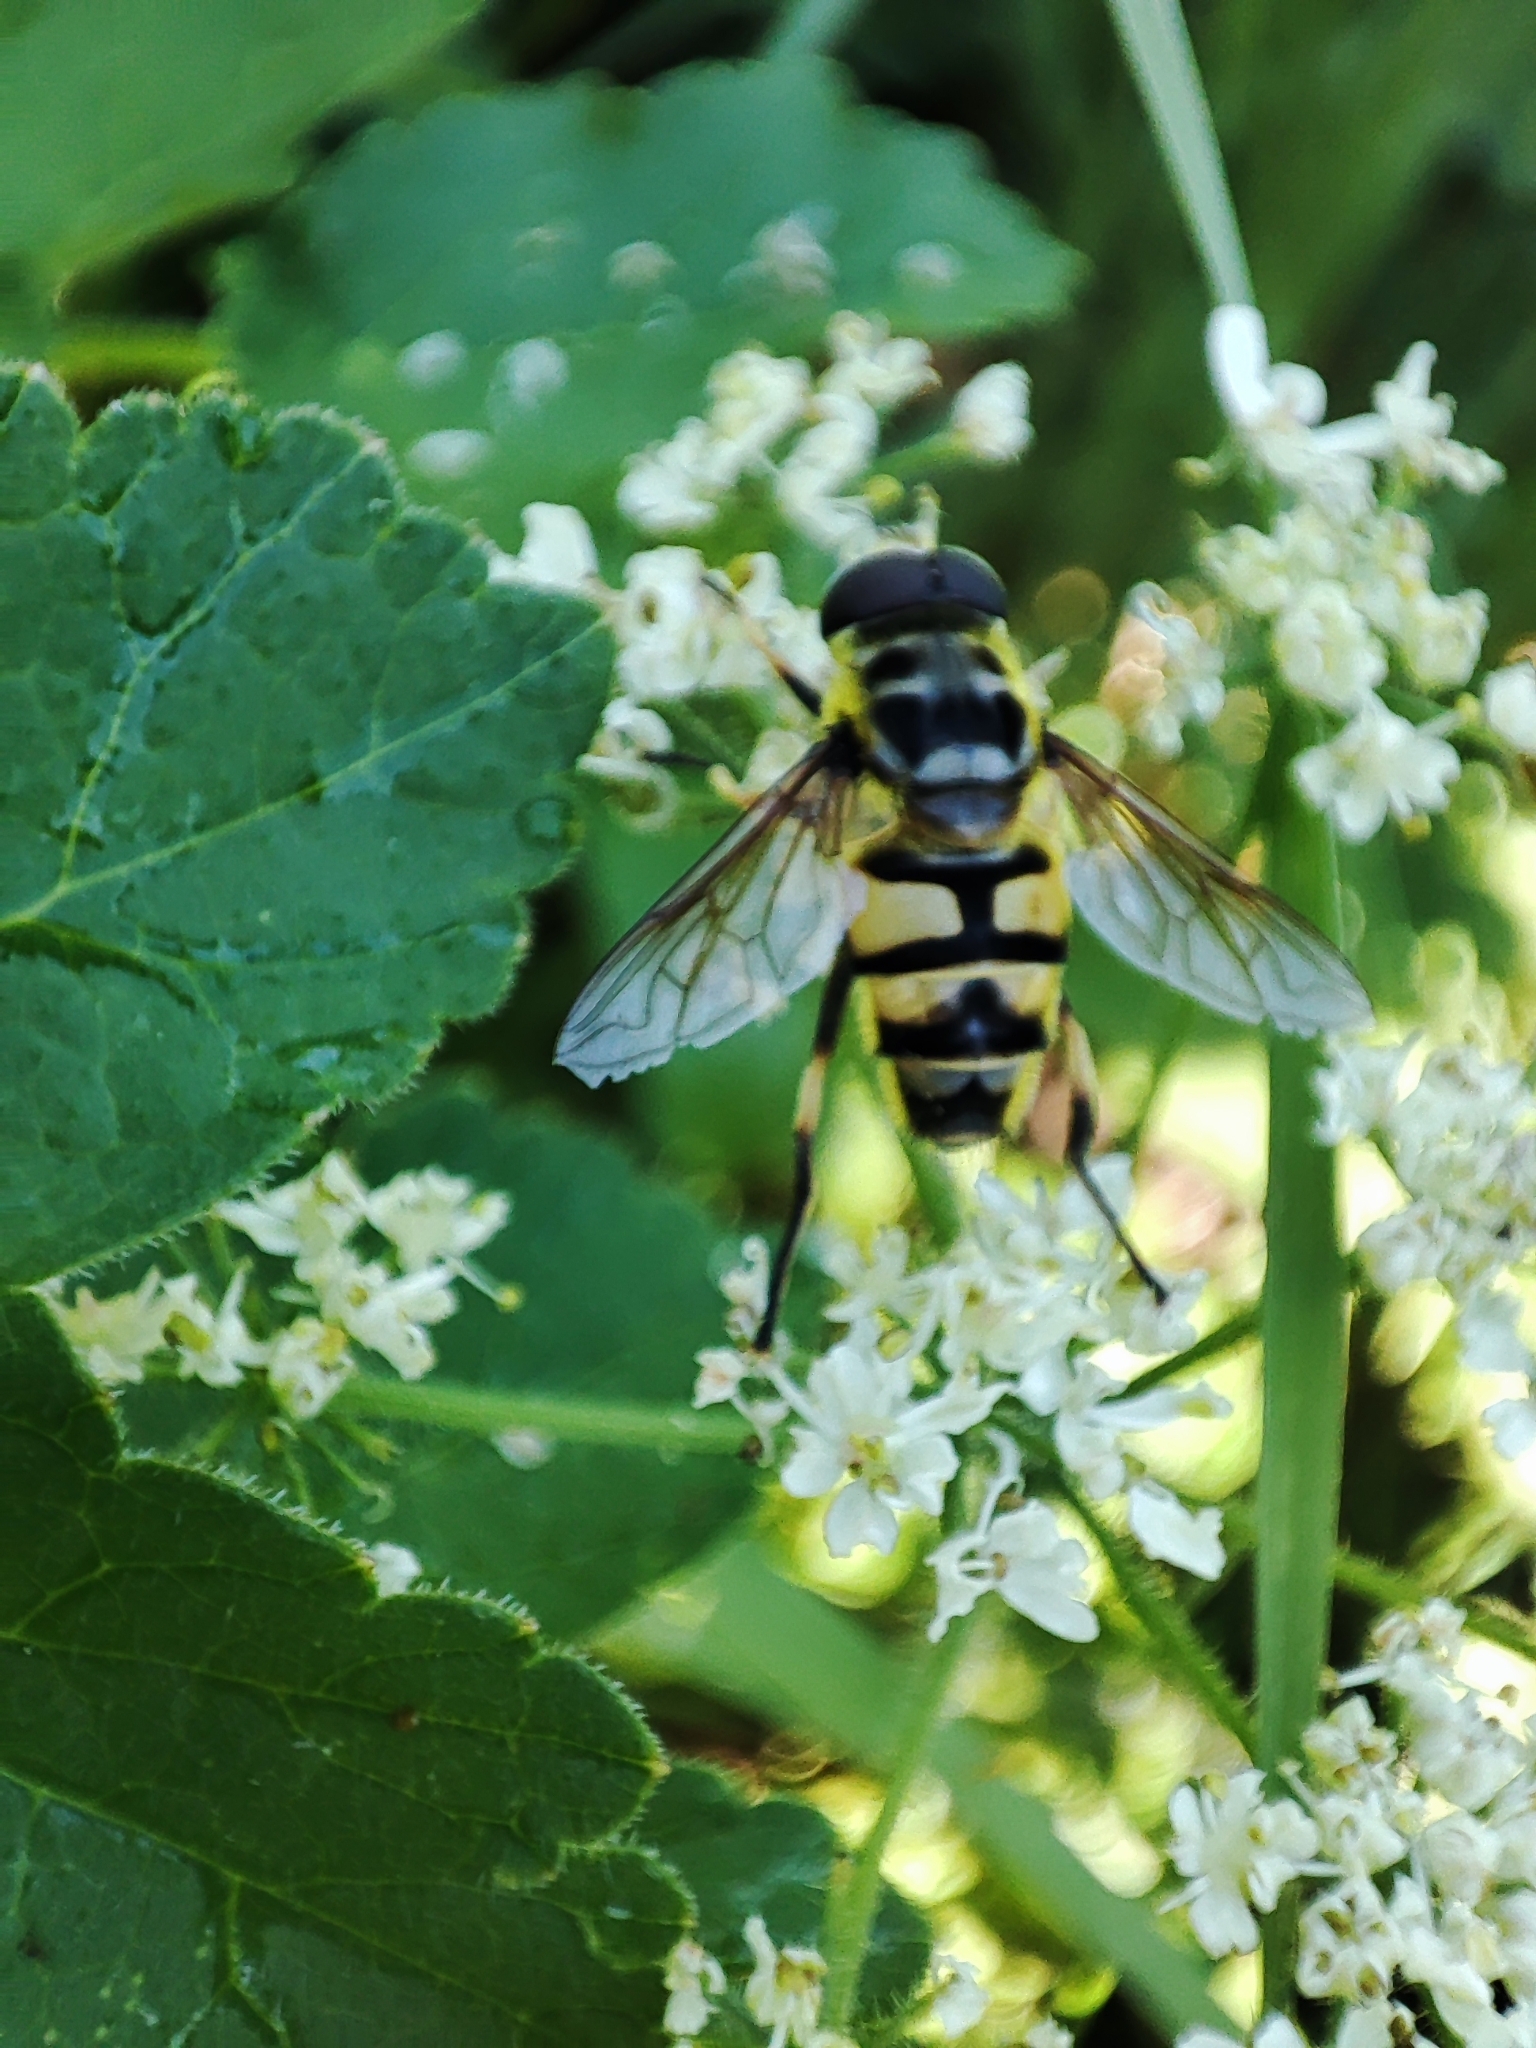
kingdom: Animalia
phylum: Arthropoda
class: Insecta
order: Diptera
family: Syrphidae
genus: Myathropa
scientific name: Myathropa florea
